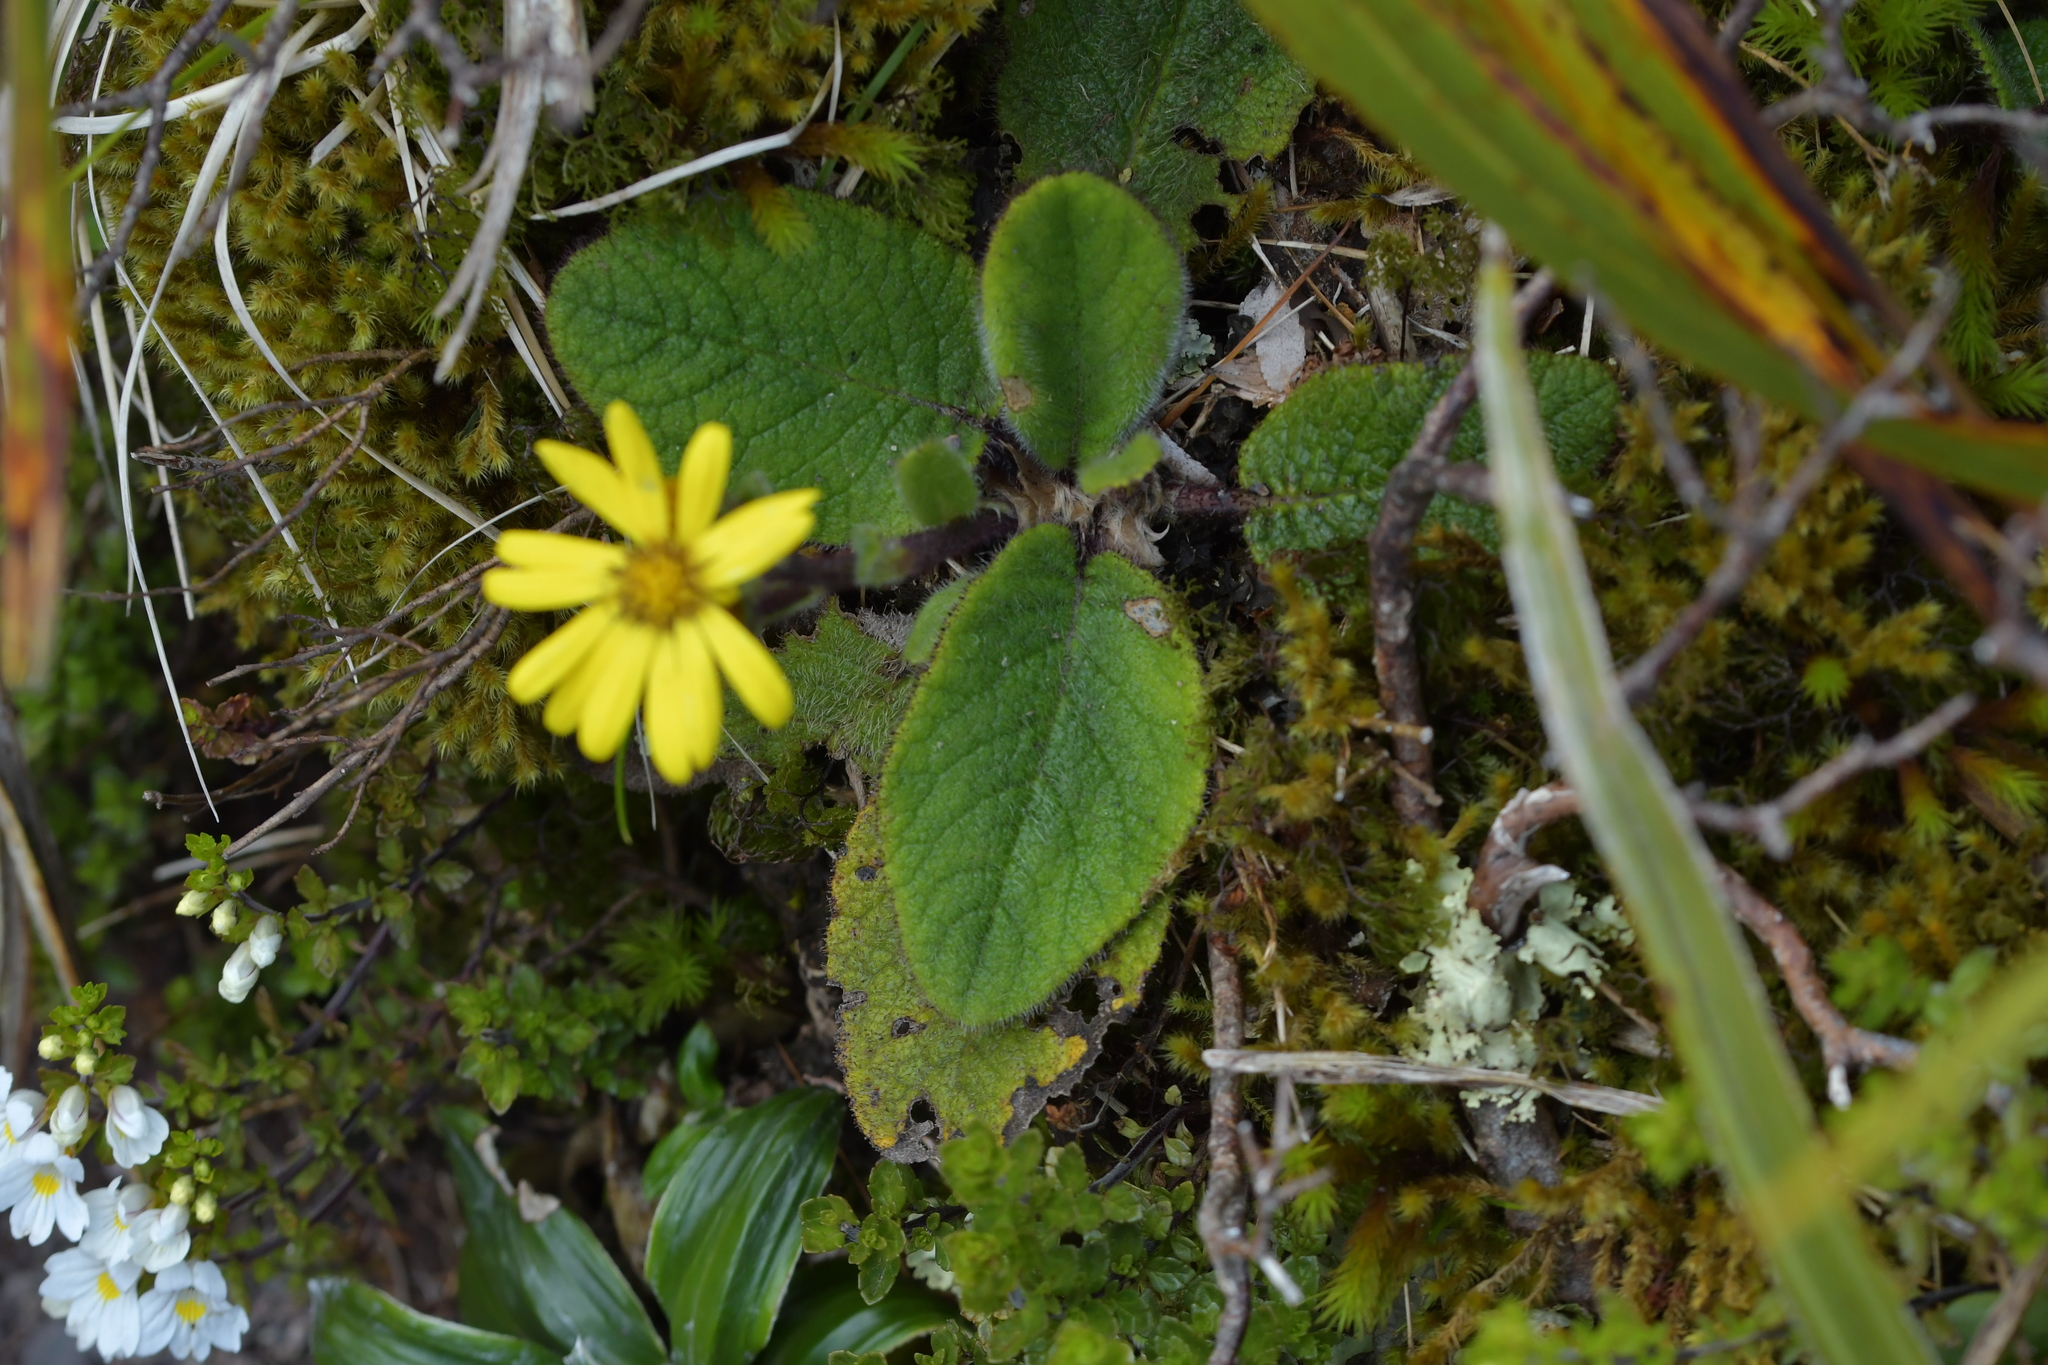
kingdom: Plantae
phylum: Tracheophyta
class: Magnoliopsida
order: Asterales
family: Asteraceae
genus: Brachyglottis
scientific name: Brachyglottis lagopus
